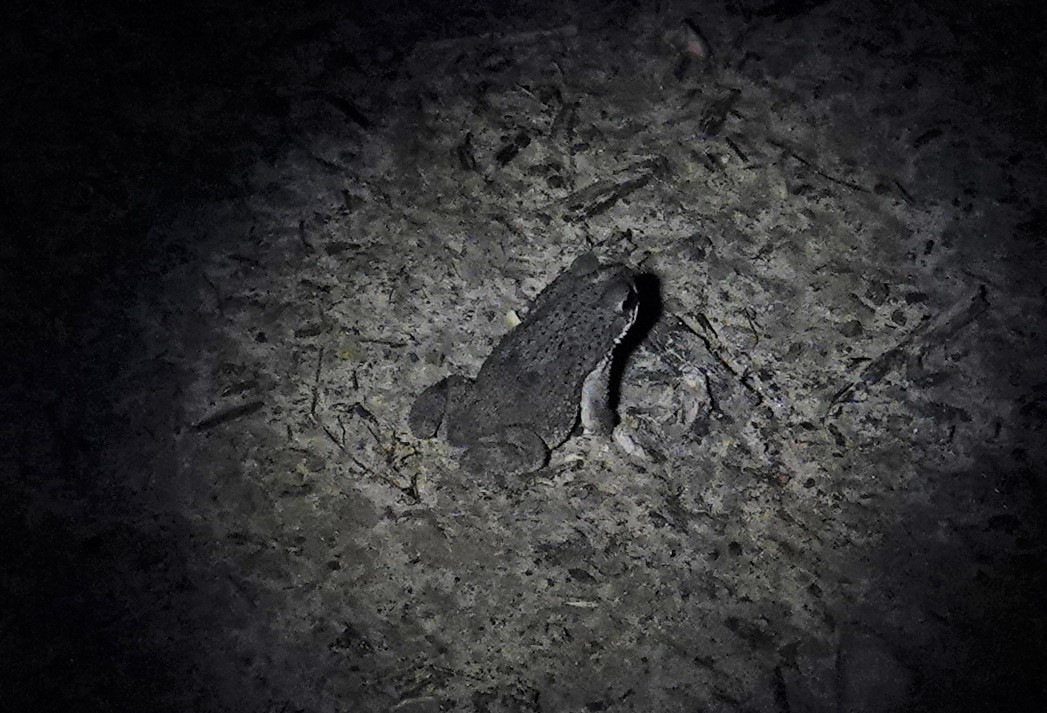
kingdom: Animalia
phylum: Chordata
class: Amphibia
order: Anura
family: Bufonidae
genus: Rhinella
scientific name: Rhinella major
